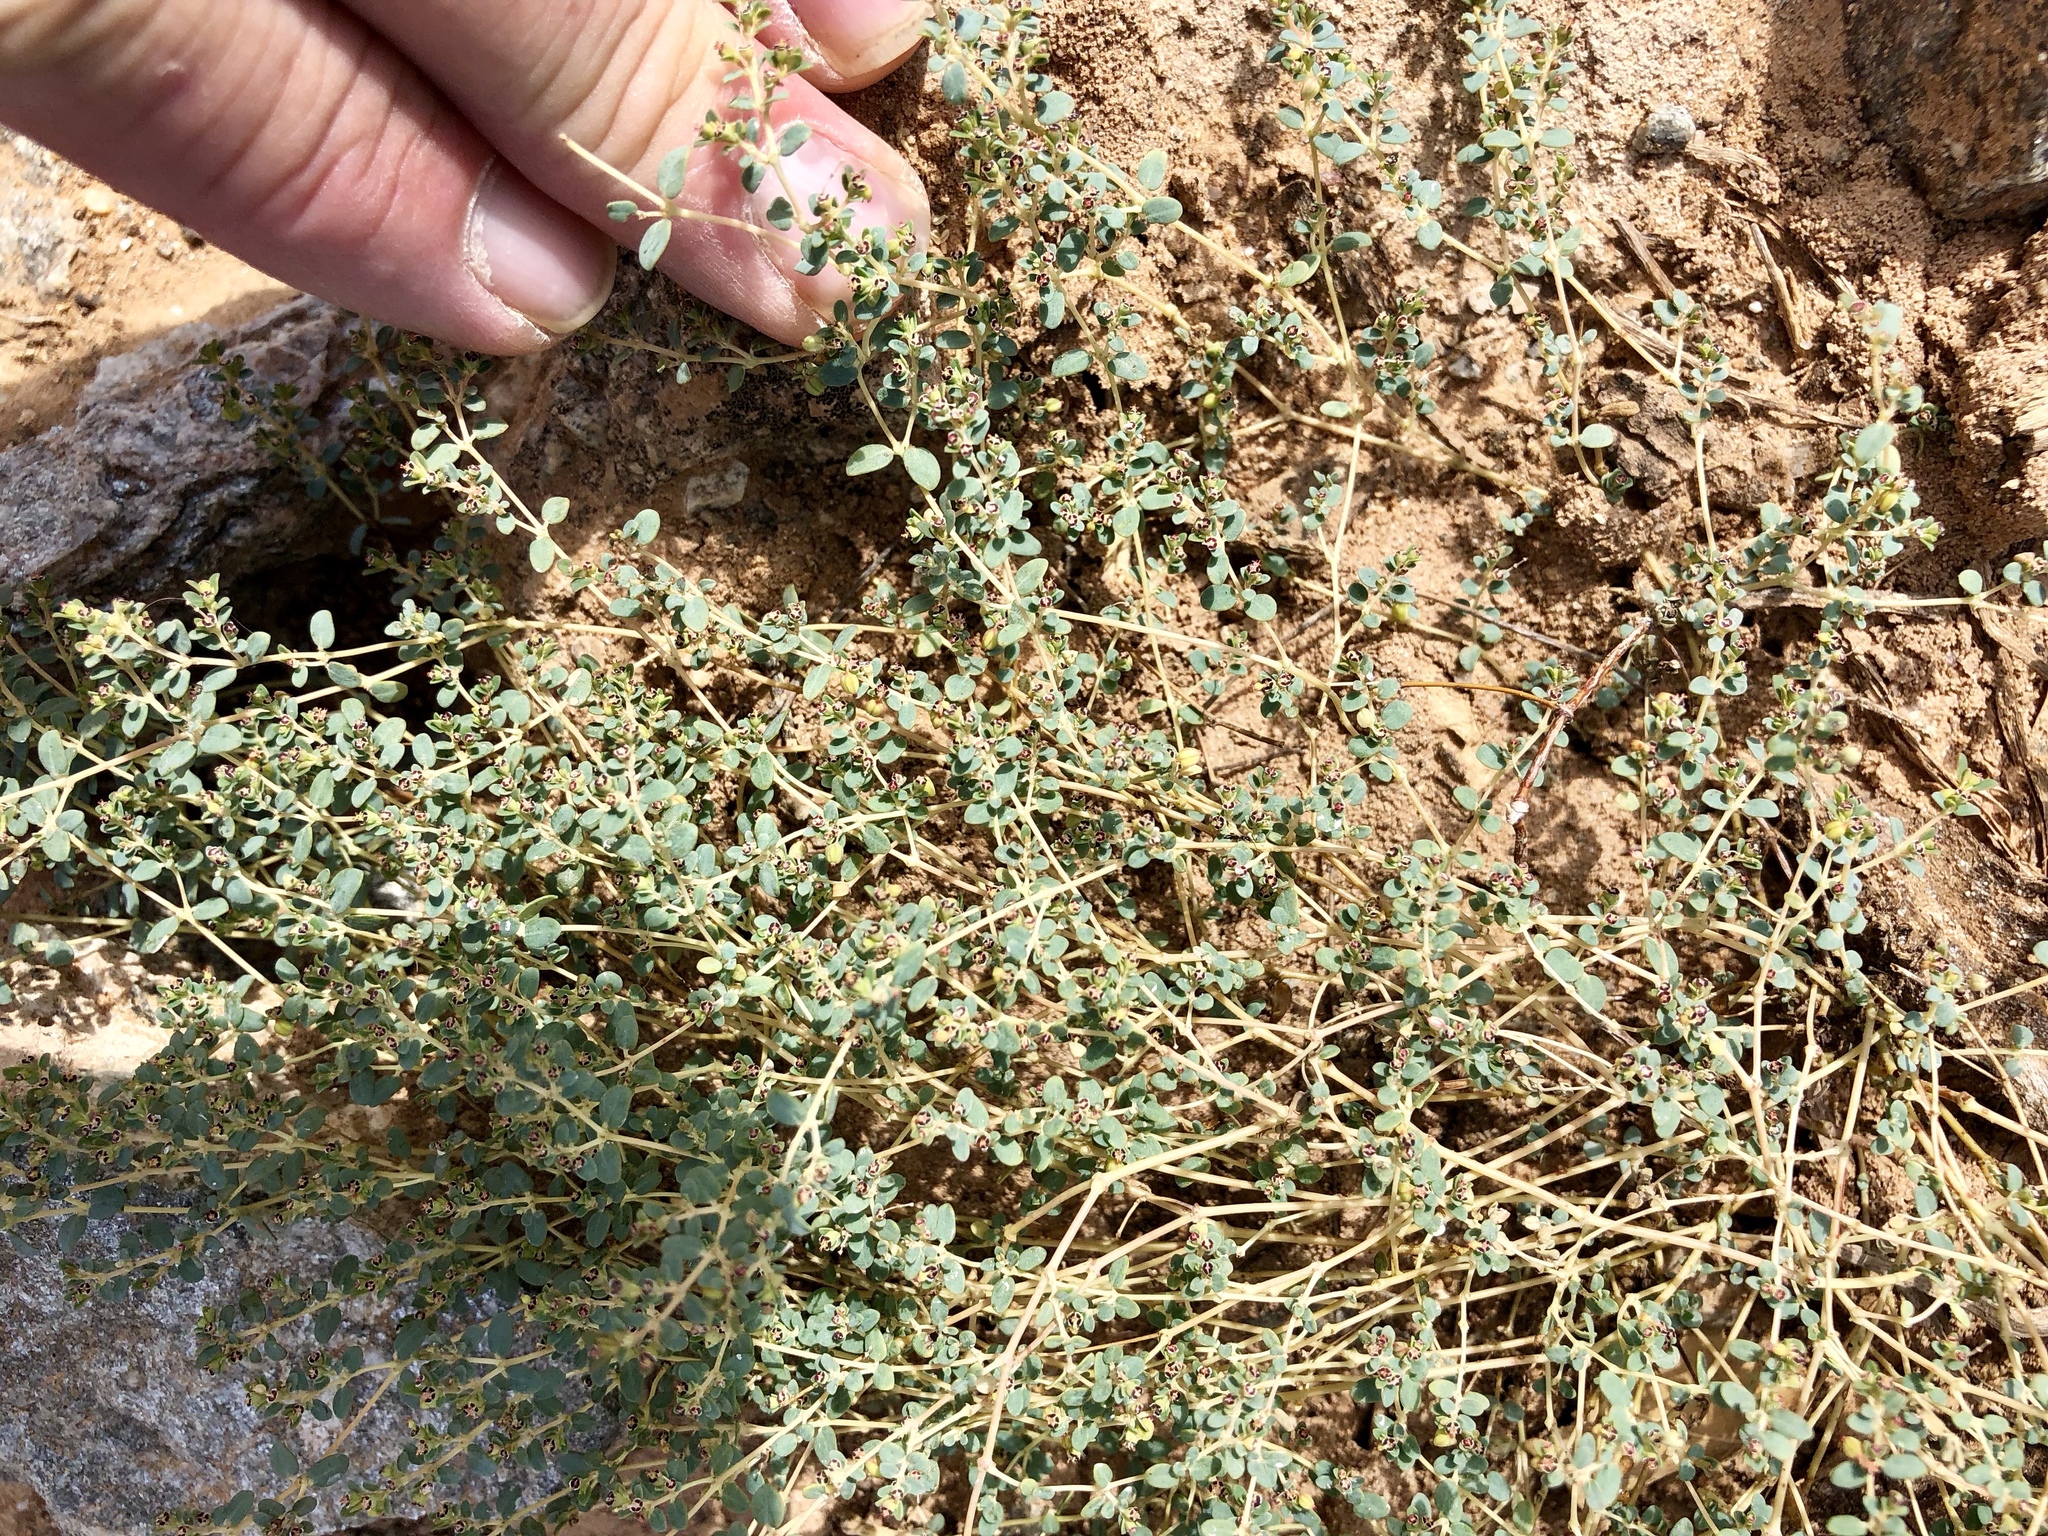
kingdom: Plantae
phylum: Tracheophyta
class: Magnoliopsida
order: Malpighiales
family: Euphorbiaceae
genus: Euphorbia
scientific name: Euphorbia polycarpa
